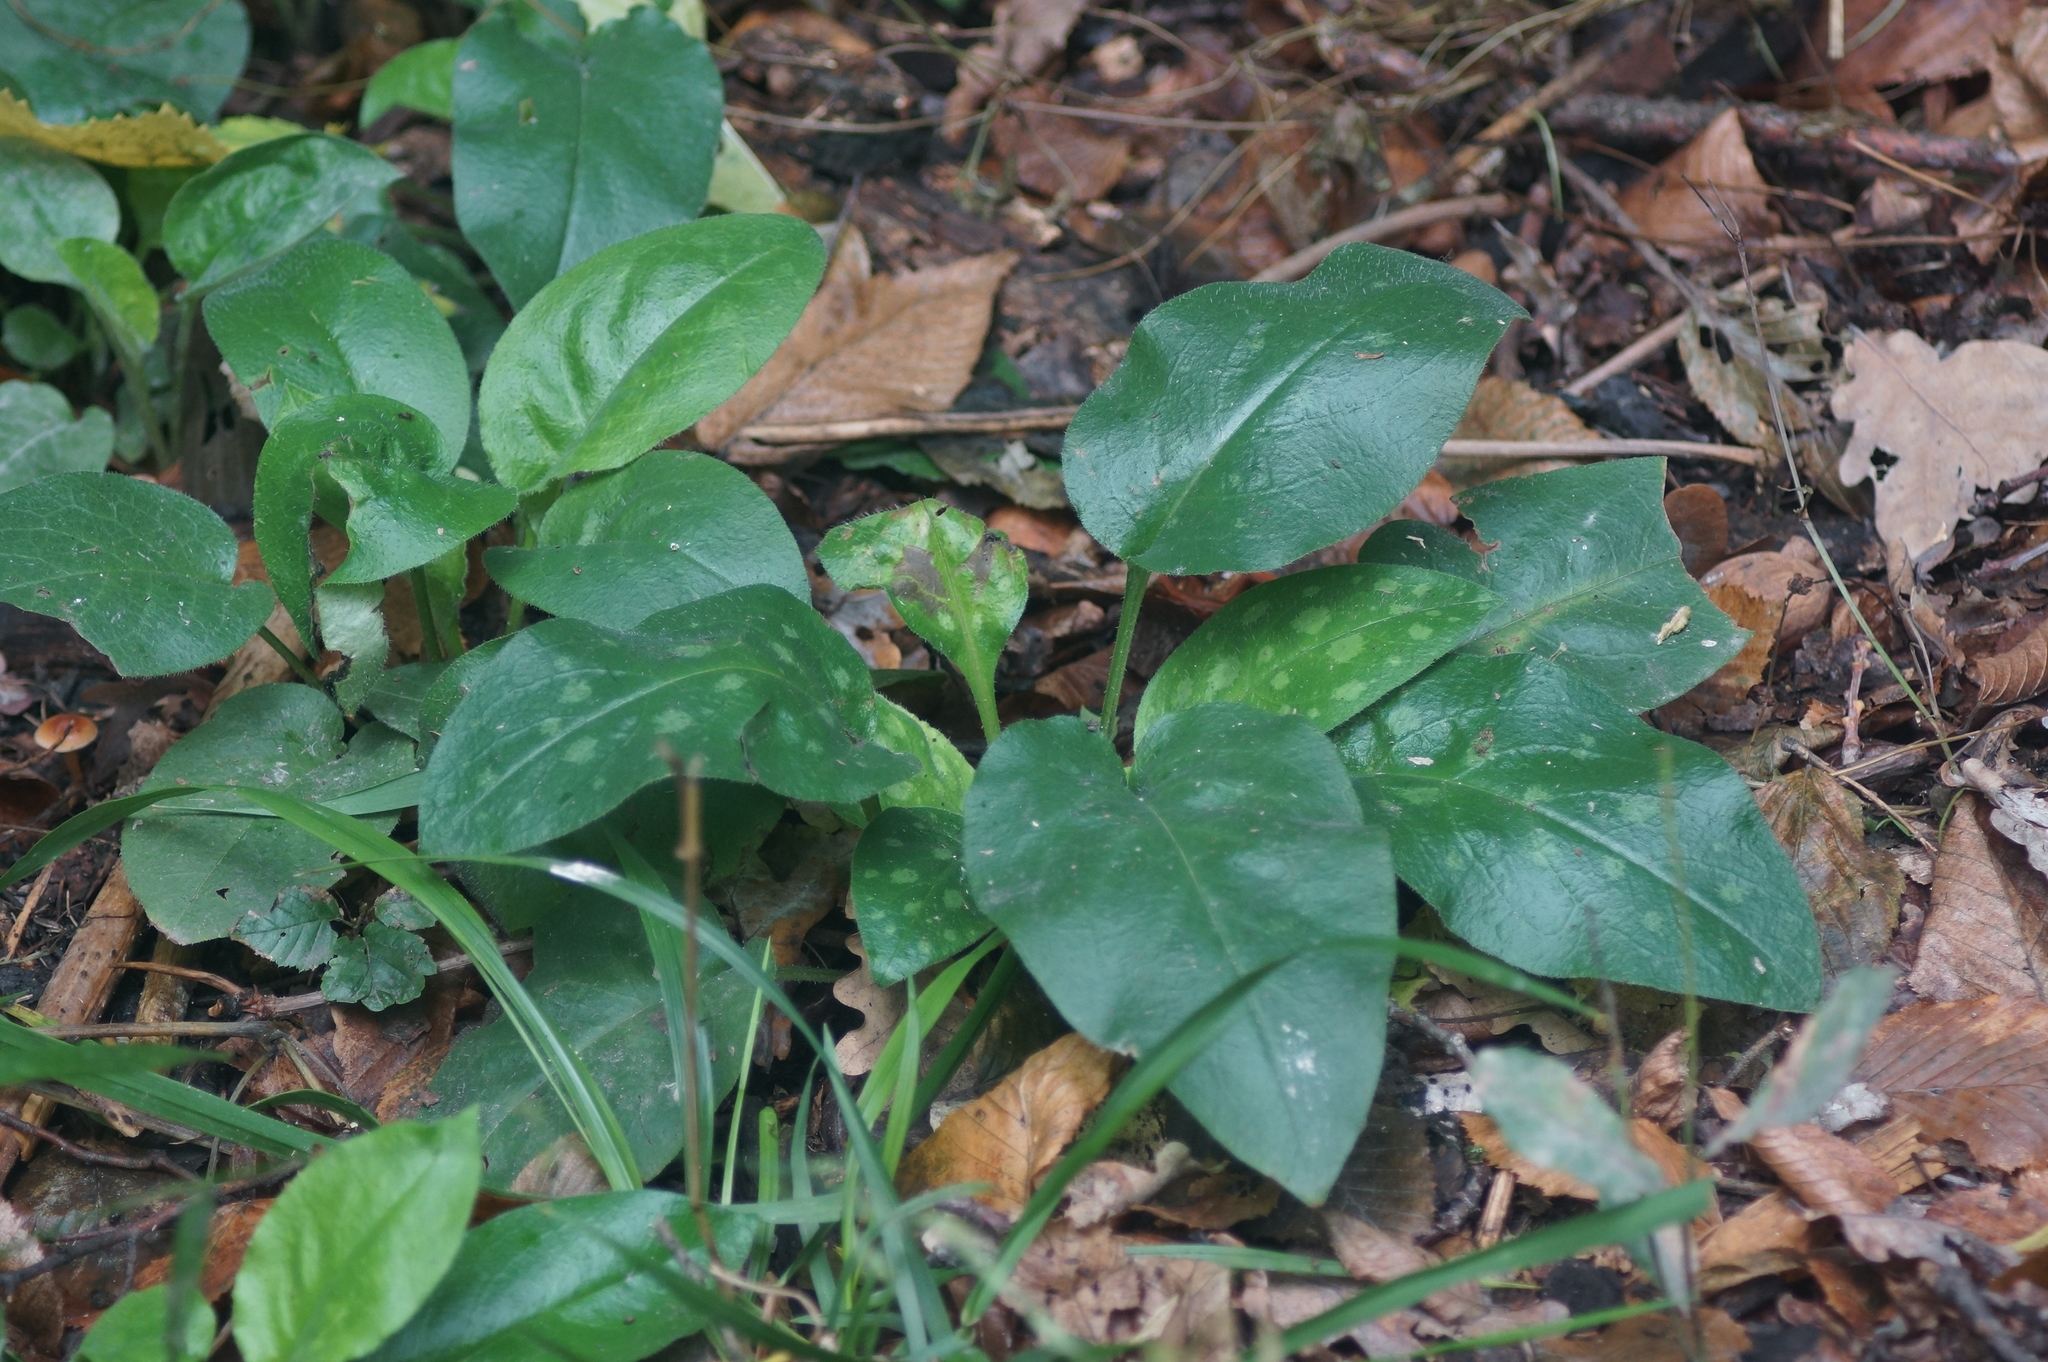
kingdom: Plantae
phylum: Tracheophyta
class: Magnoliopsida
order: Boraginales
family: Boraginaceae
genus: Pulmonaria
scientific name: Pulmonaria obscura
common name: Suffolk lungwort
